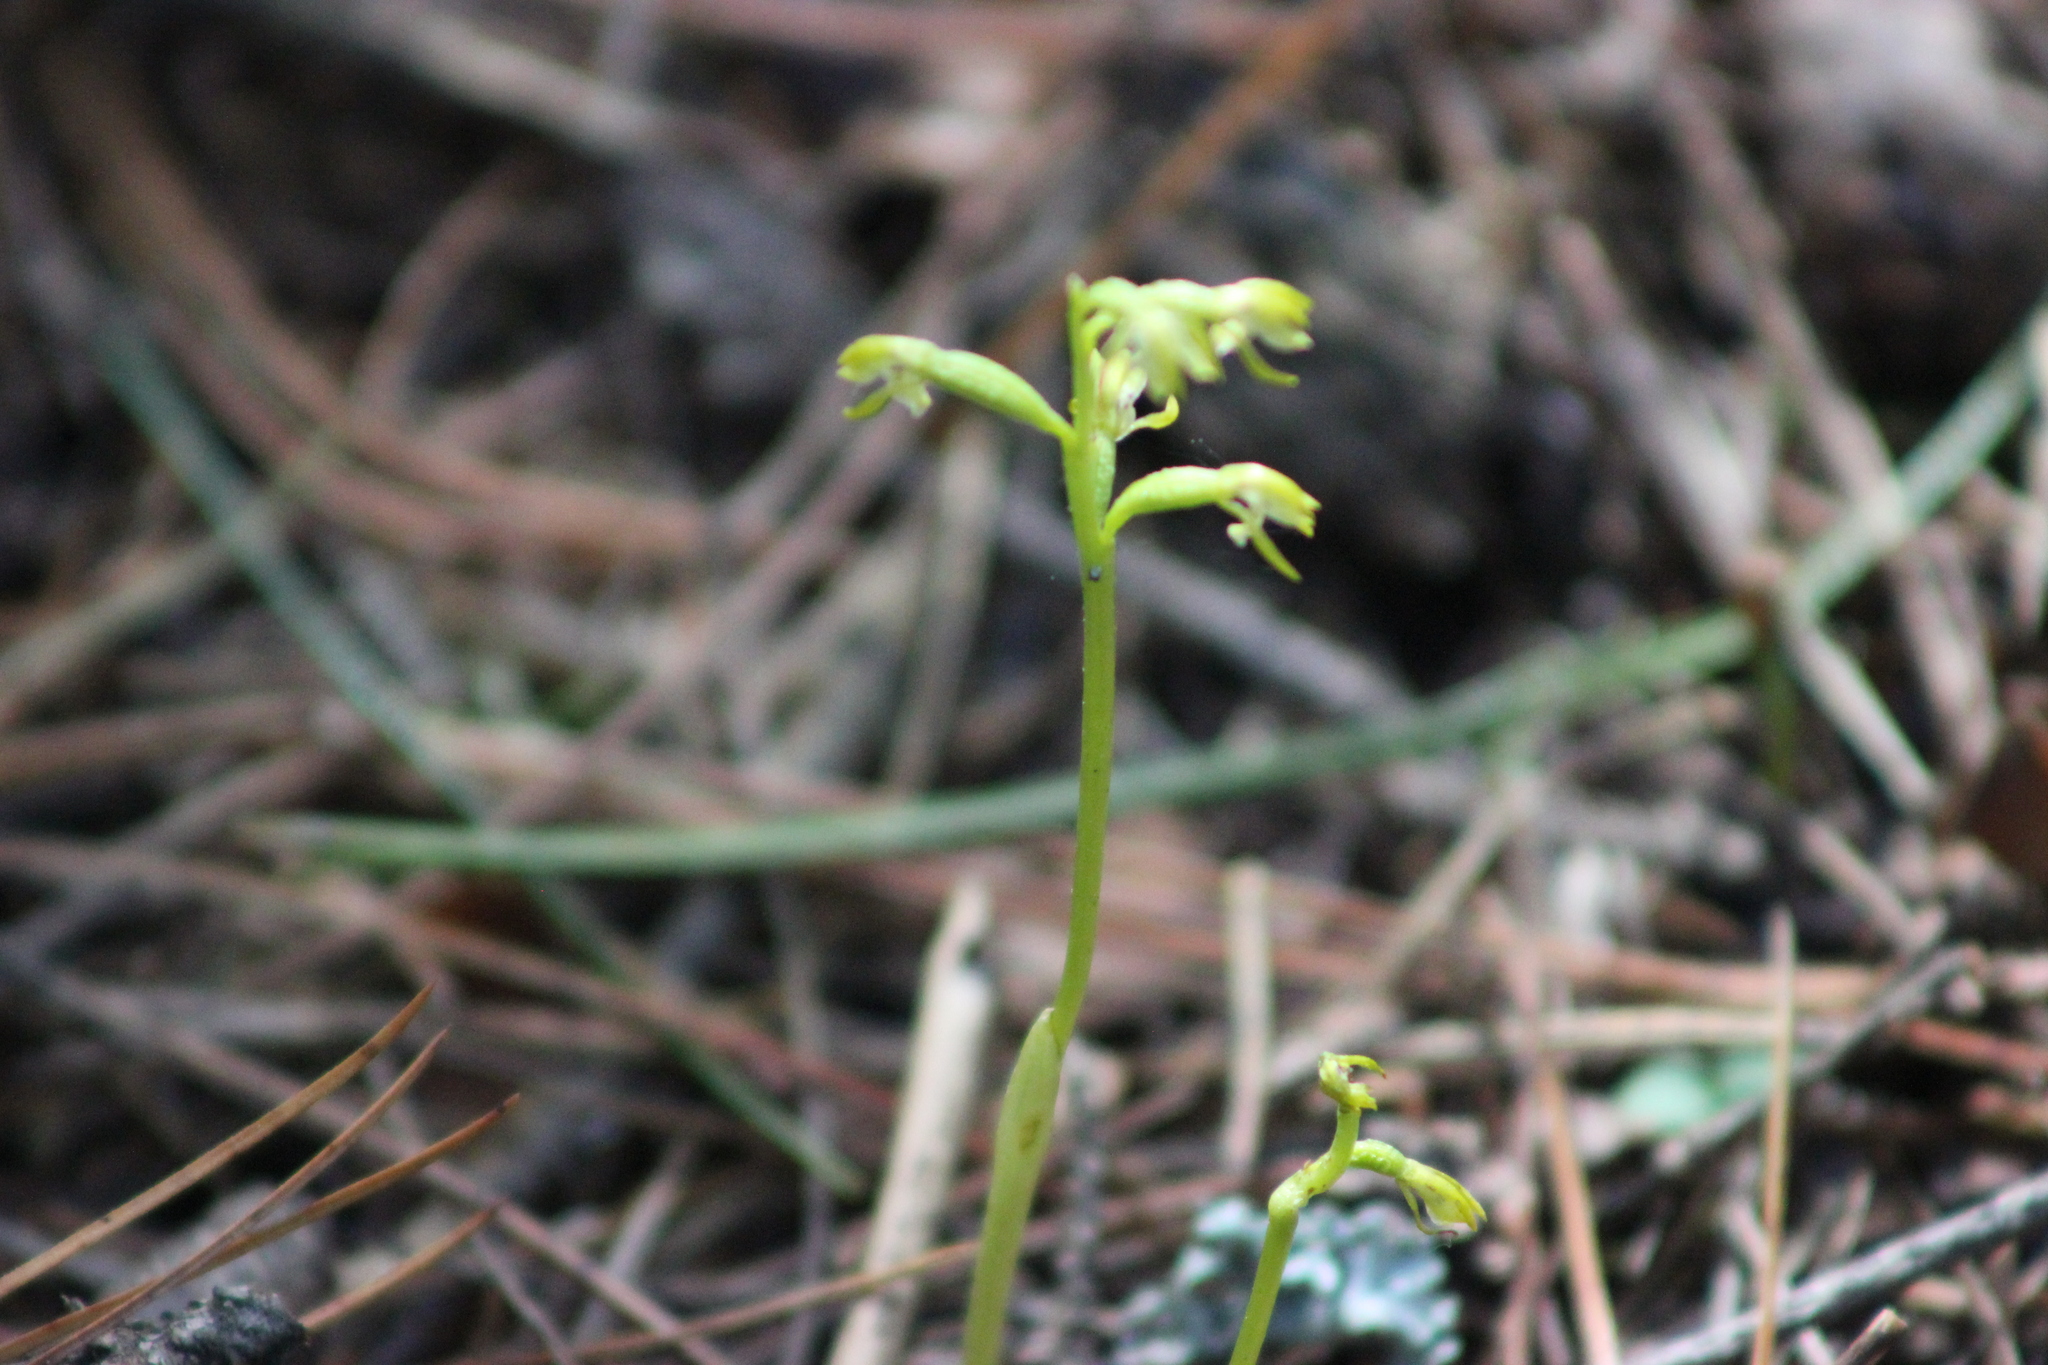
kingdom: Plantae
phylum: Tracheophyta
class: Liliopsida
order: Asparagales
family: Orchidaceae
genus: Corallorhiza
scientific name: Corallorhiza trifida
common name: Yellow coralroot
